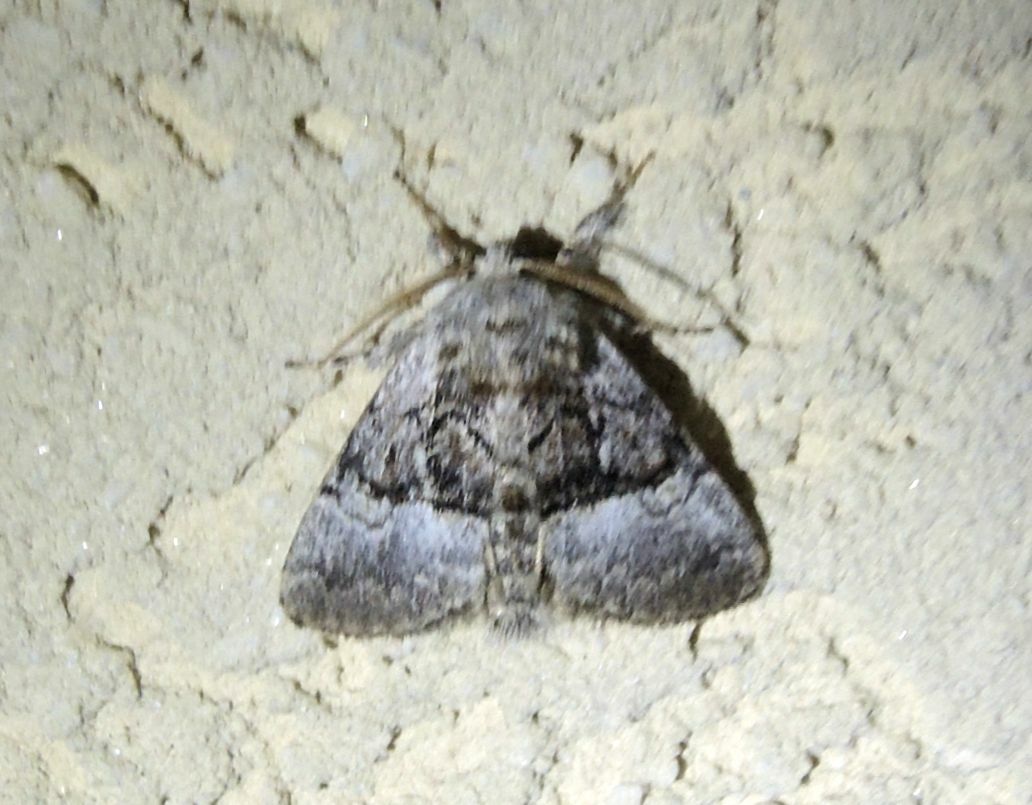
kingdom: Animalia
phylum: Arthropoda
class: Insecta
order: Lepidoptera
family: Noctuidae
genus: Colocasia
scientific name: Colocasia coryli
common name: Nut-tree tussock
